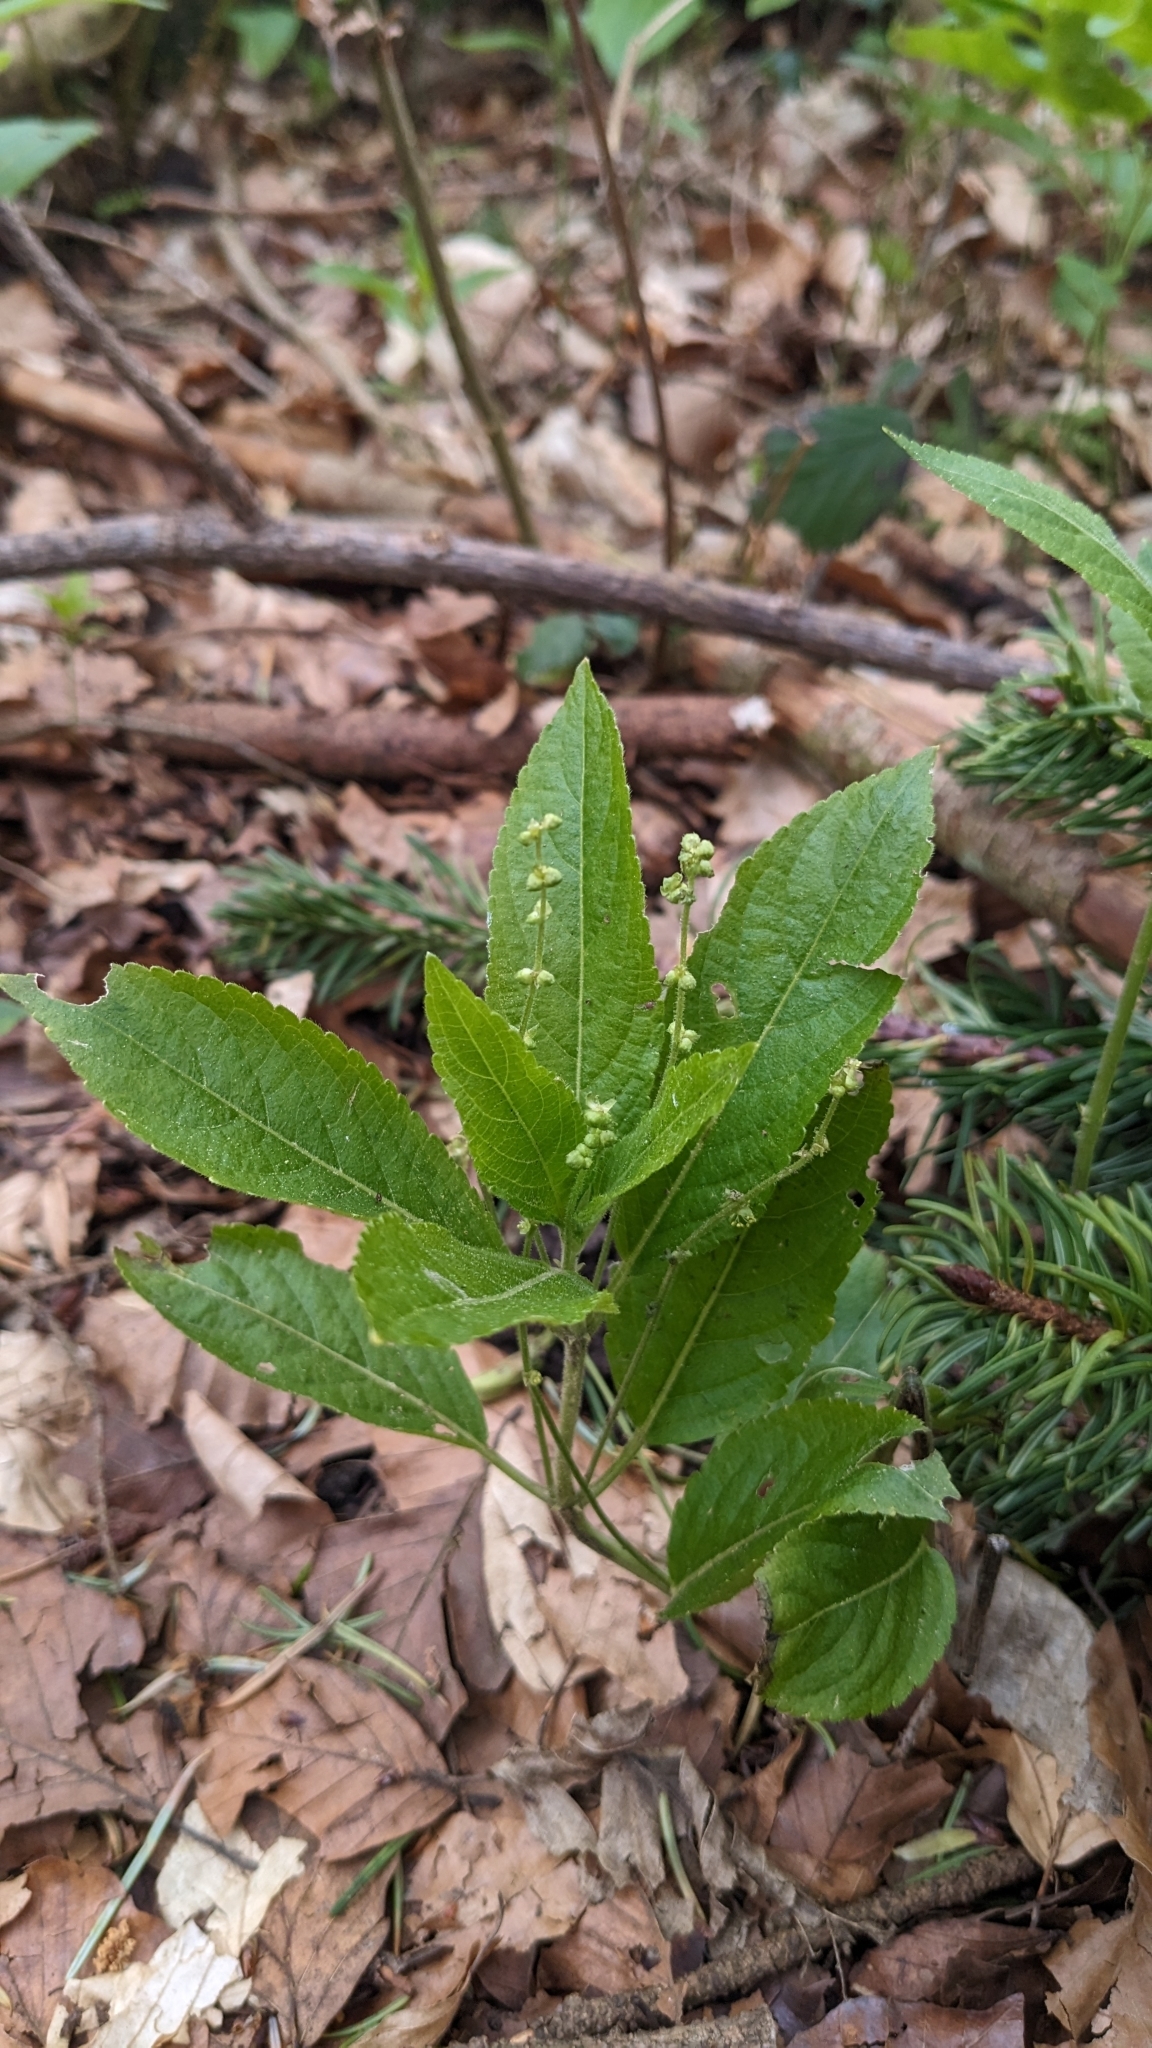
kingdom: Plantae
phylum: Tracheophyta
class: Magnoliopsida
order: Malpighiales
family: Euphorbiaceae
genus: Mercurialis
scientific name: Mercurialis perennis
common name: Dog mercury
